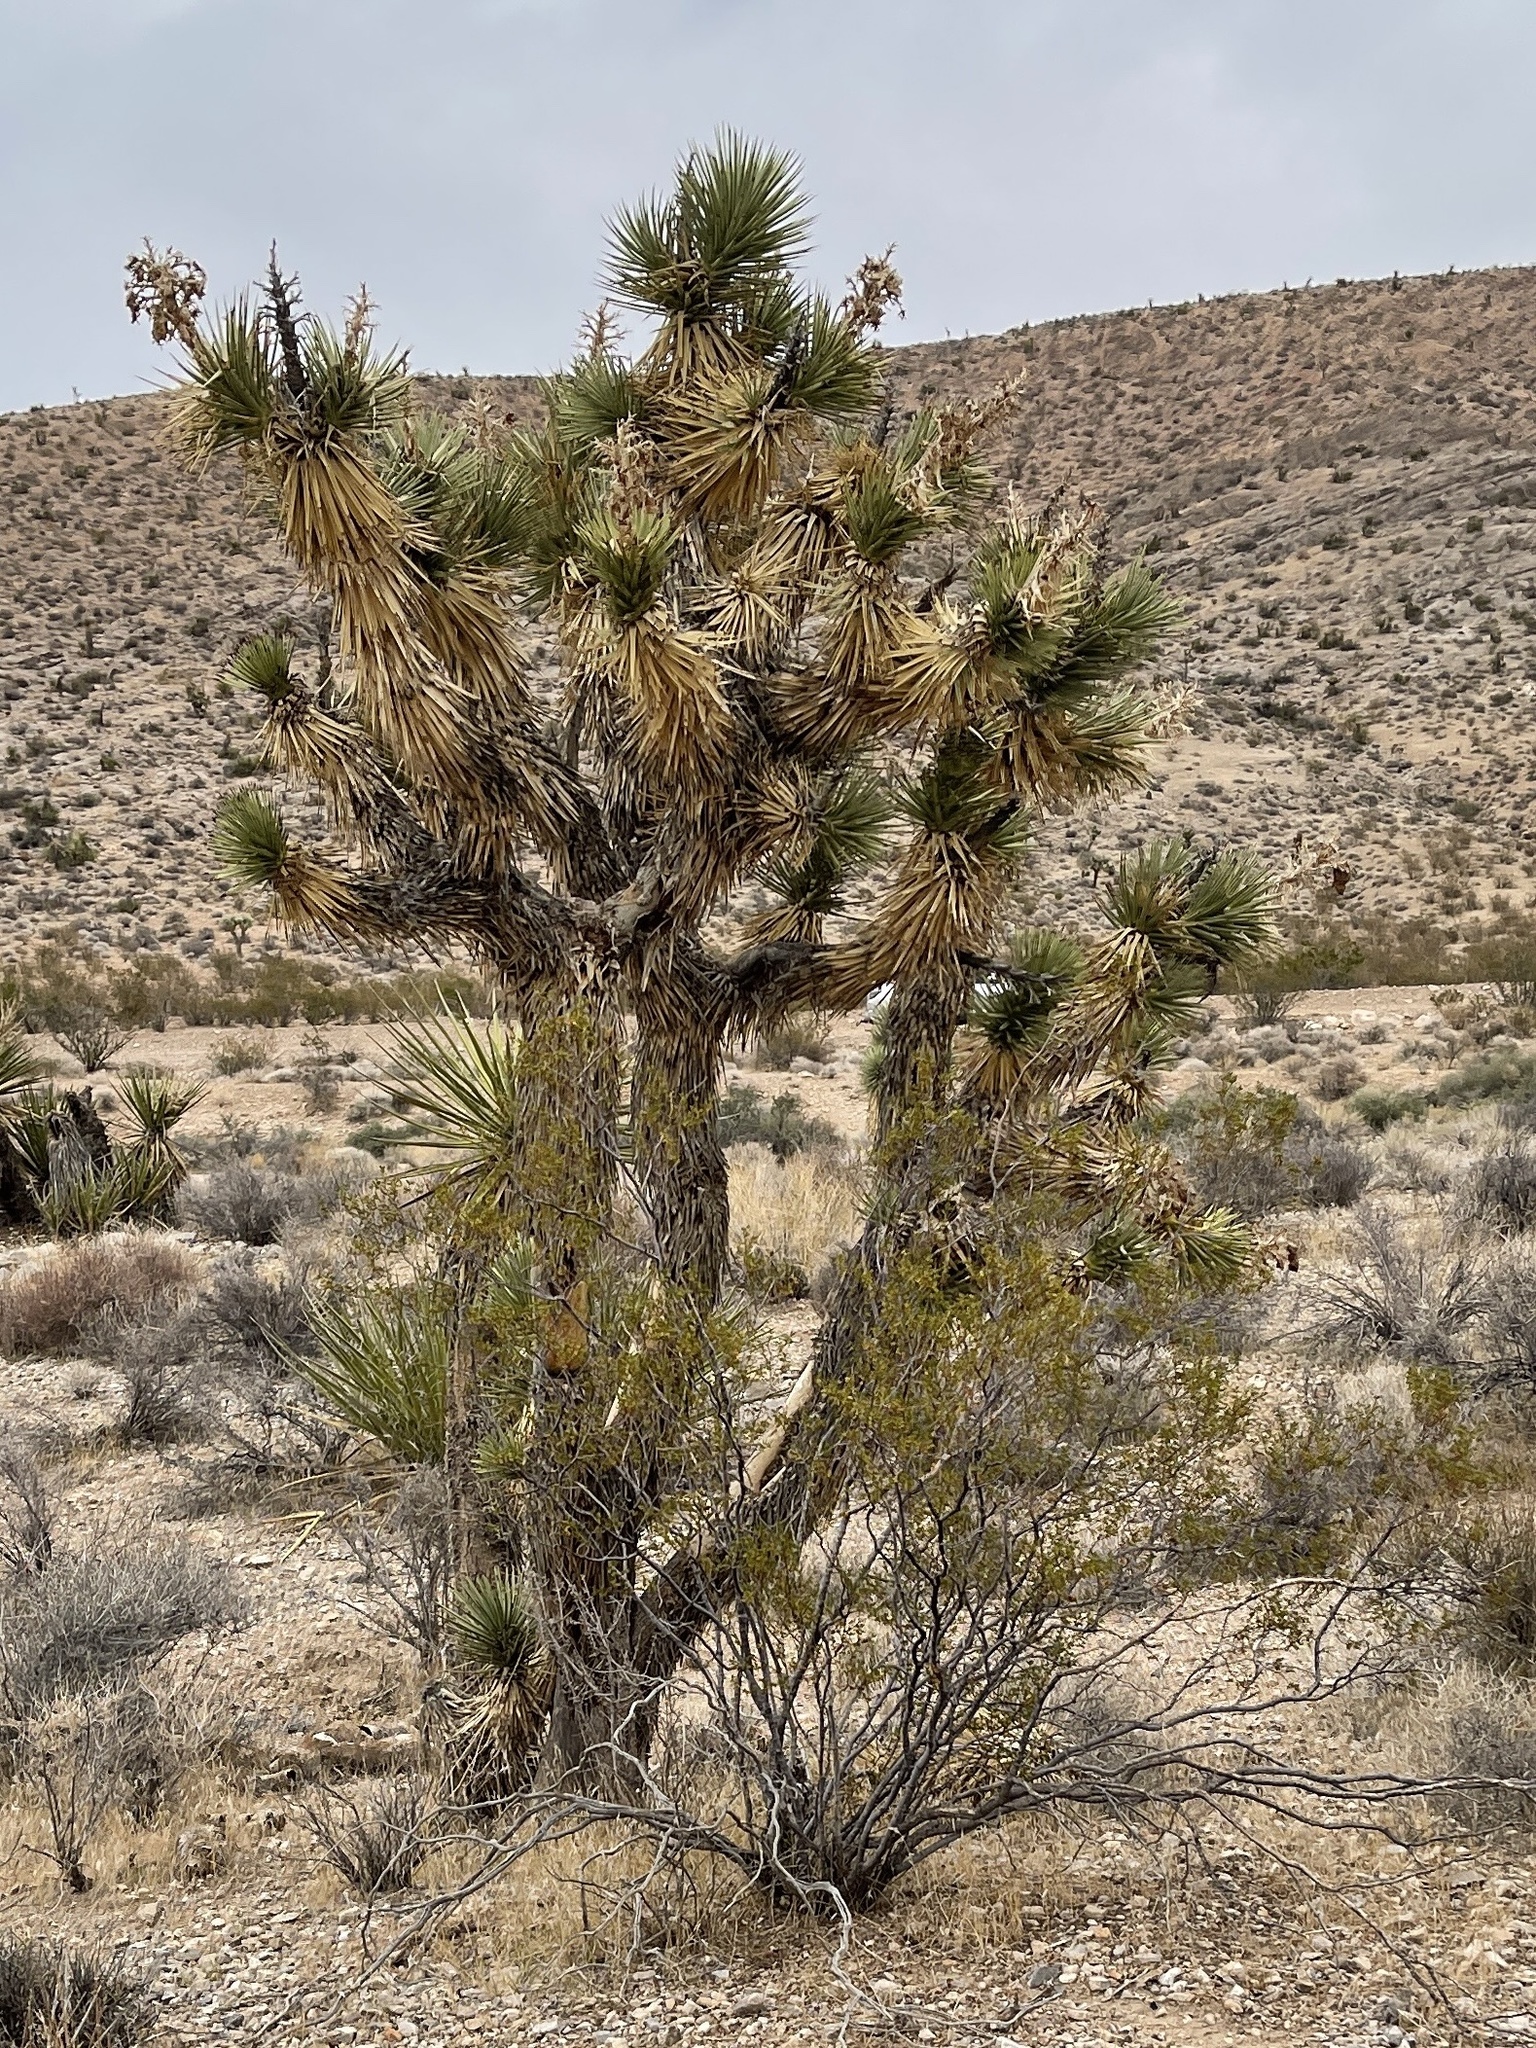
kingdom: Plantae
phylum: Tracheophyta
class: Liliopsida
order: Asparagales
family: Asparagaceae
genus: Yucca
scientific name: Yucca brevifolia
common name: Joshua tree
